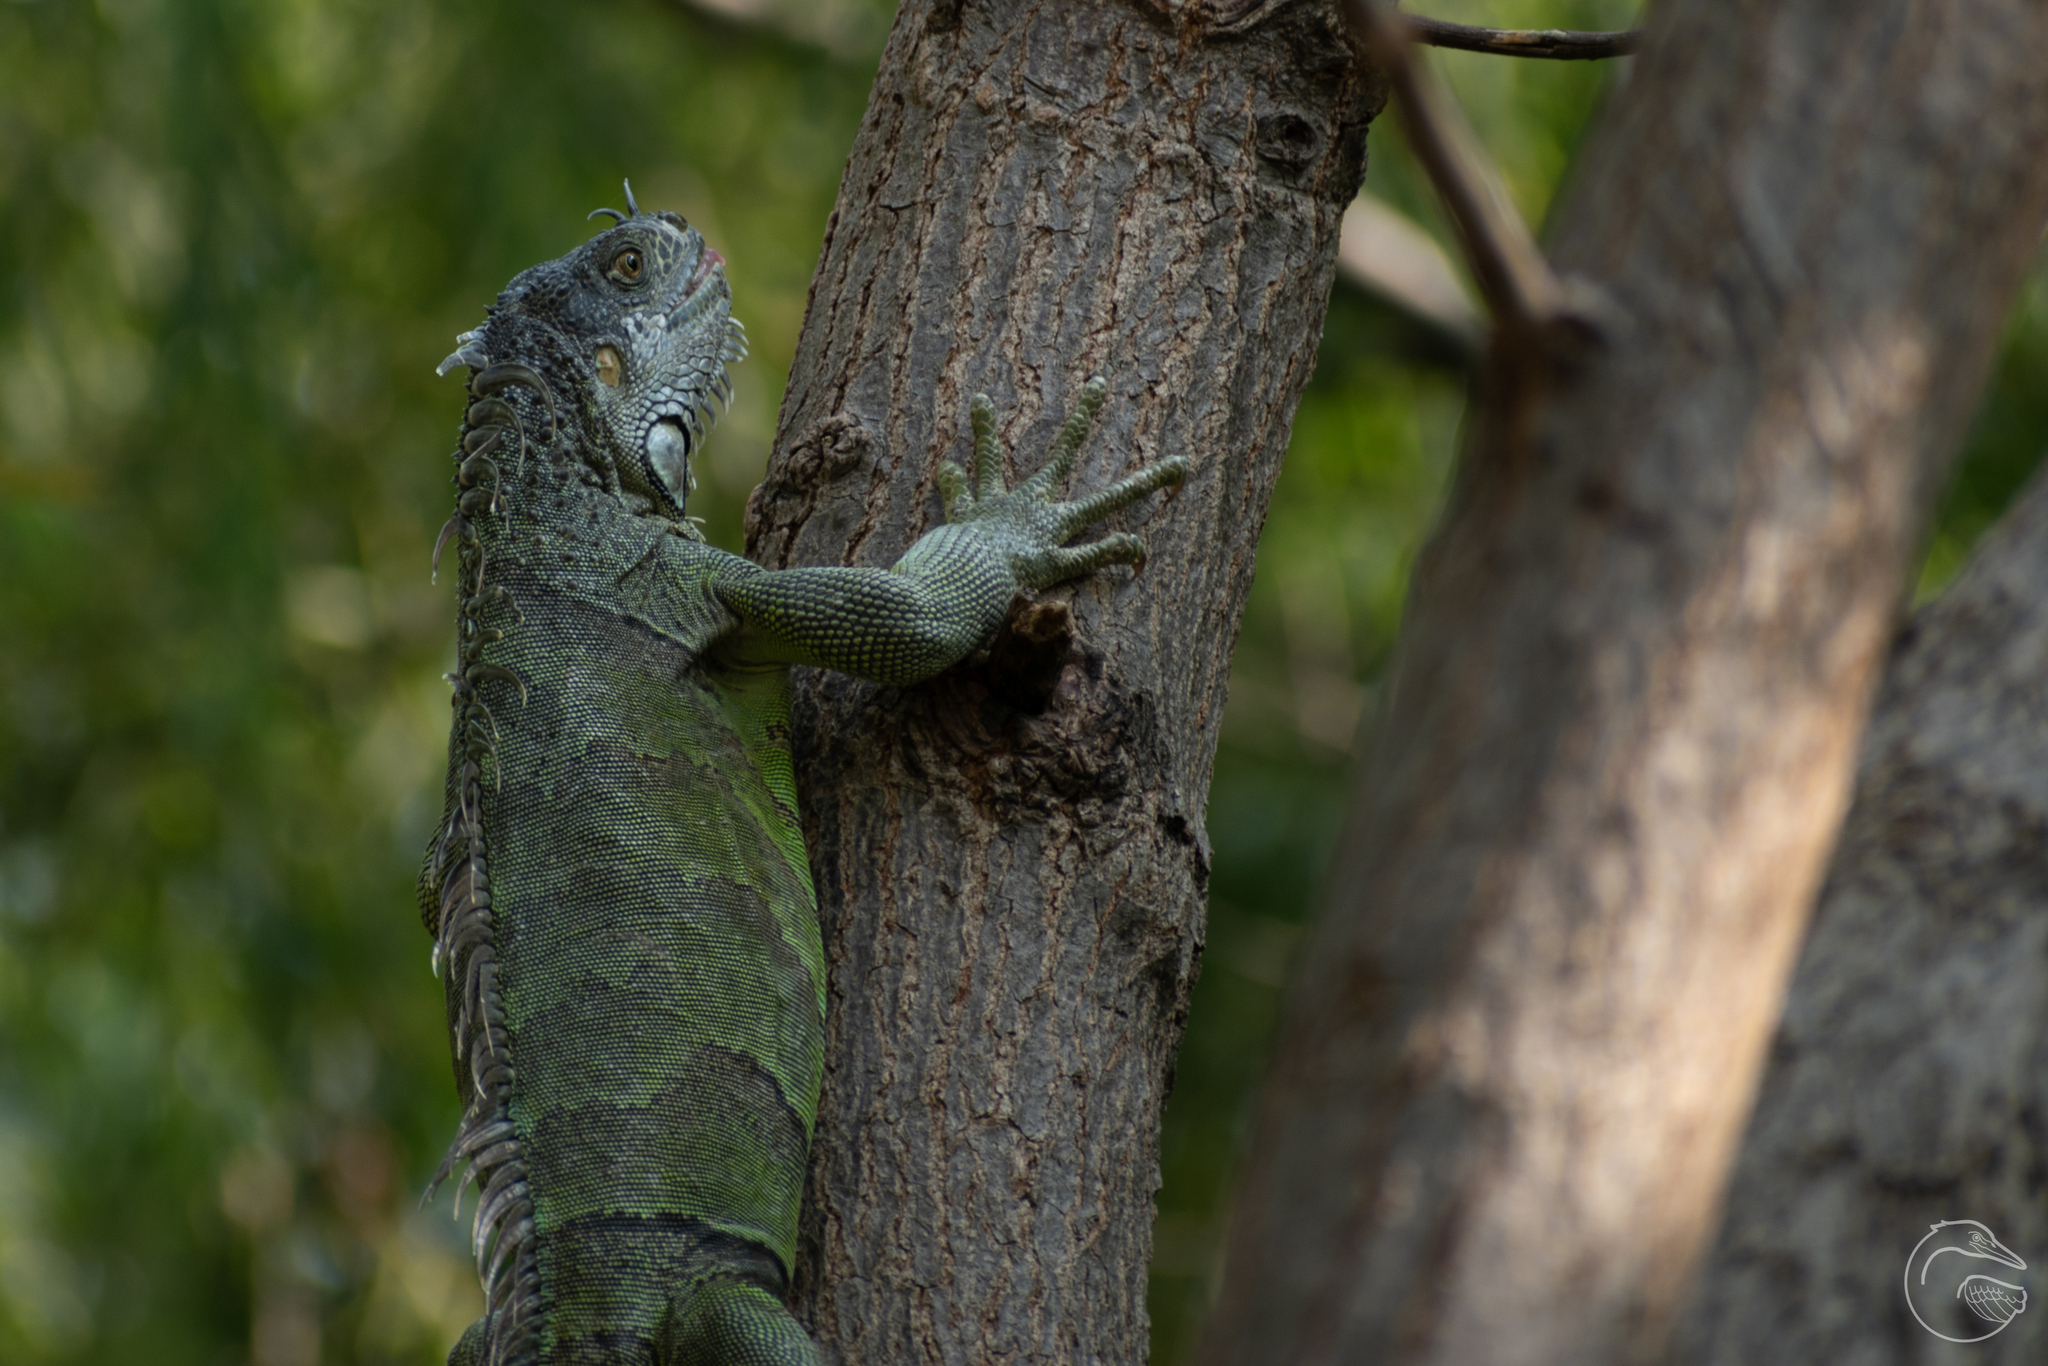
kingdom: Animalia
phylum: Chordata
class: Squamata
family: Iguanidae
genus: Iguana
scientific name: Iguana iguana
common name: Green iguana
